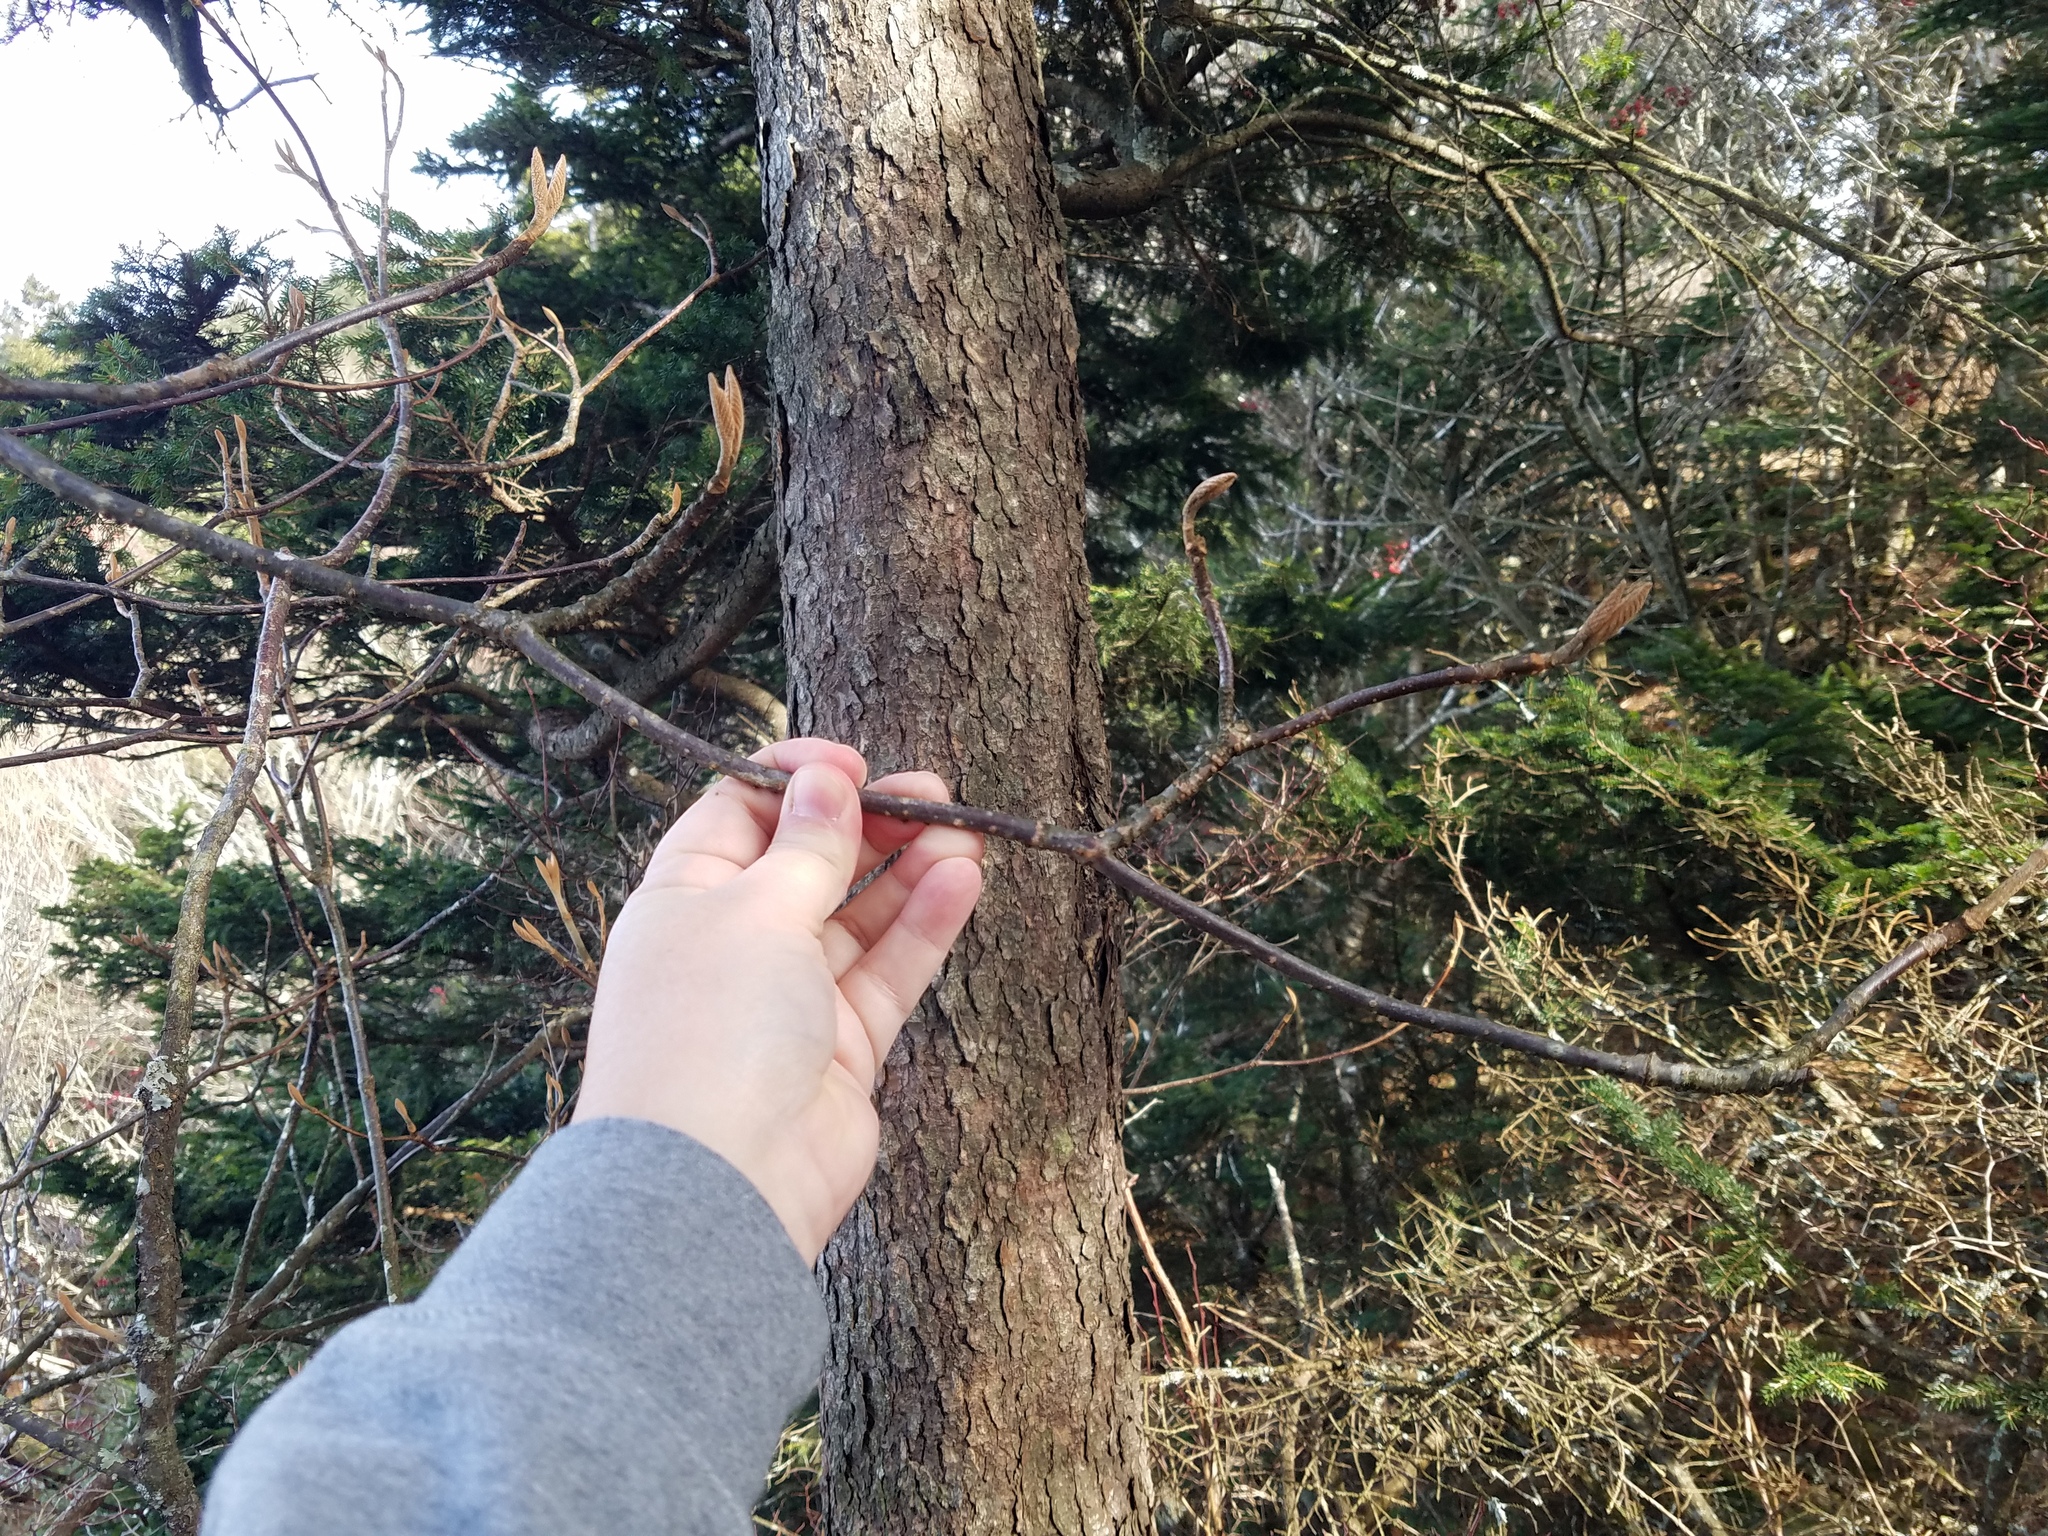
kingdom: Plantae
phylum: Tracheophyta
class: Magnoliopsida
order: Dipsacales
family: Viburnaceae
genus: Viburnum
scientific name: Viburnum lantanoides
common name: Hobblebush
